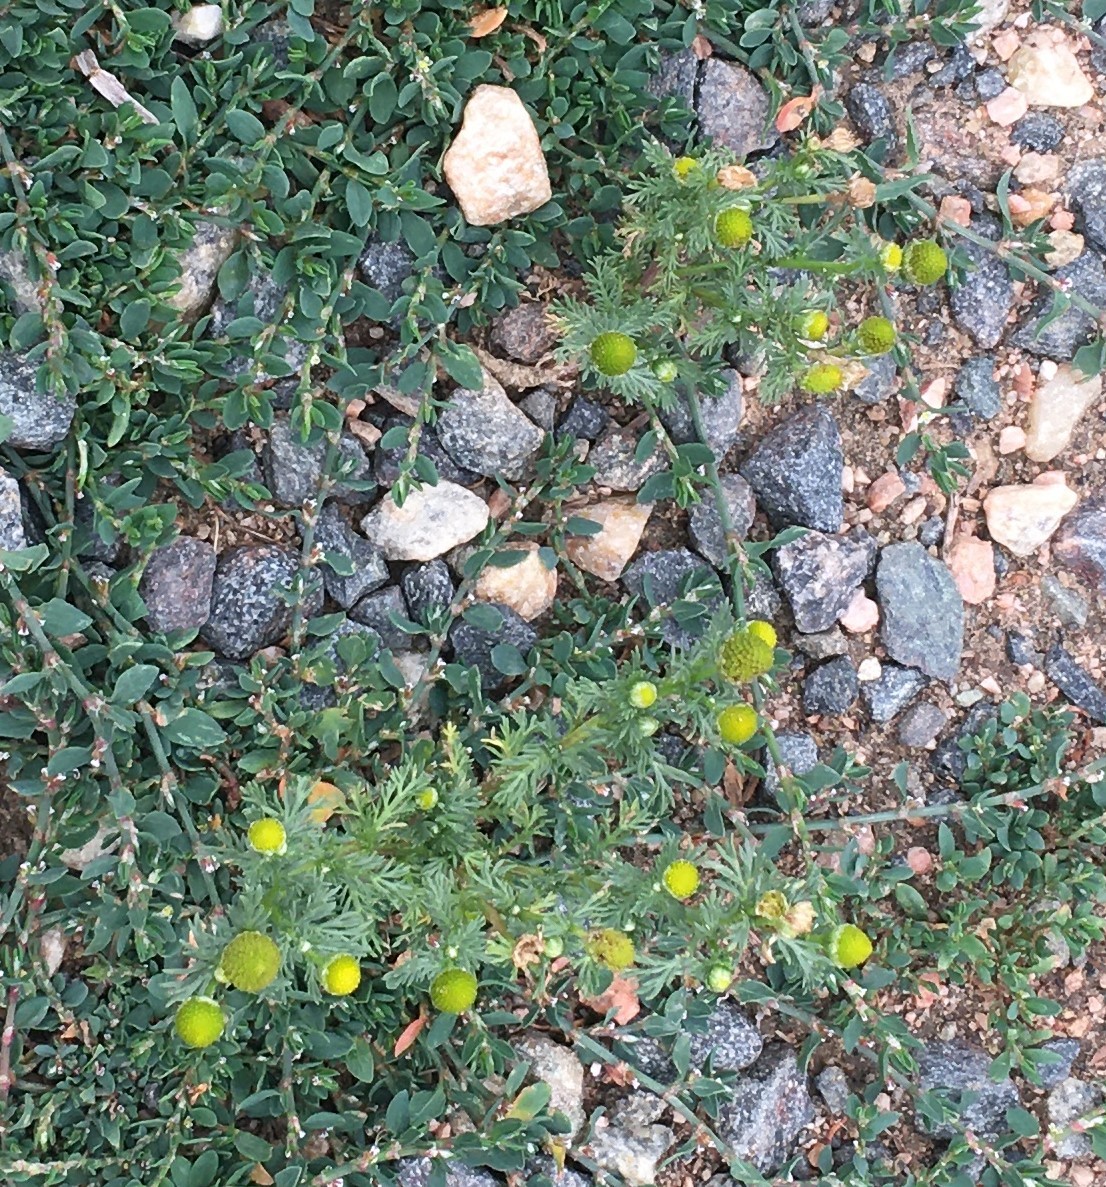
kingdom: Plantae
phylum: Tracheophyta
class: Magnoliopsida
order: Asterales
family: Asteraceae
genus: Matricaria
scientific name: Matricaria discoidea
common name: Disc mayweed
